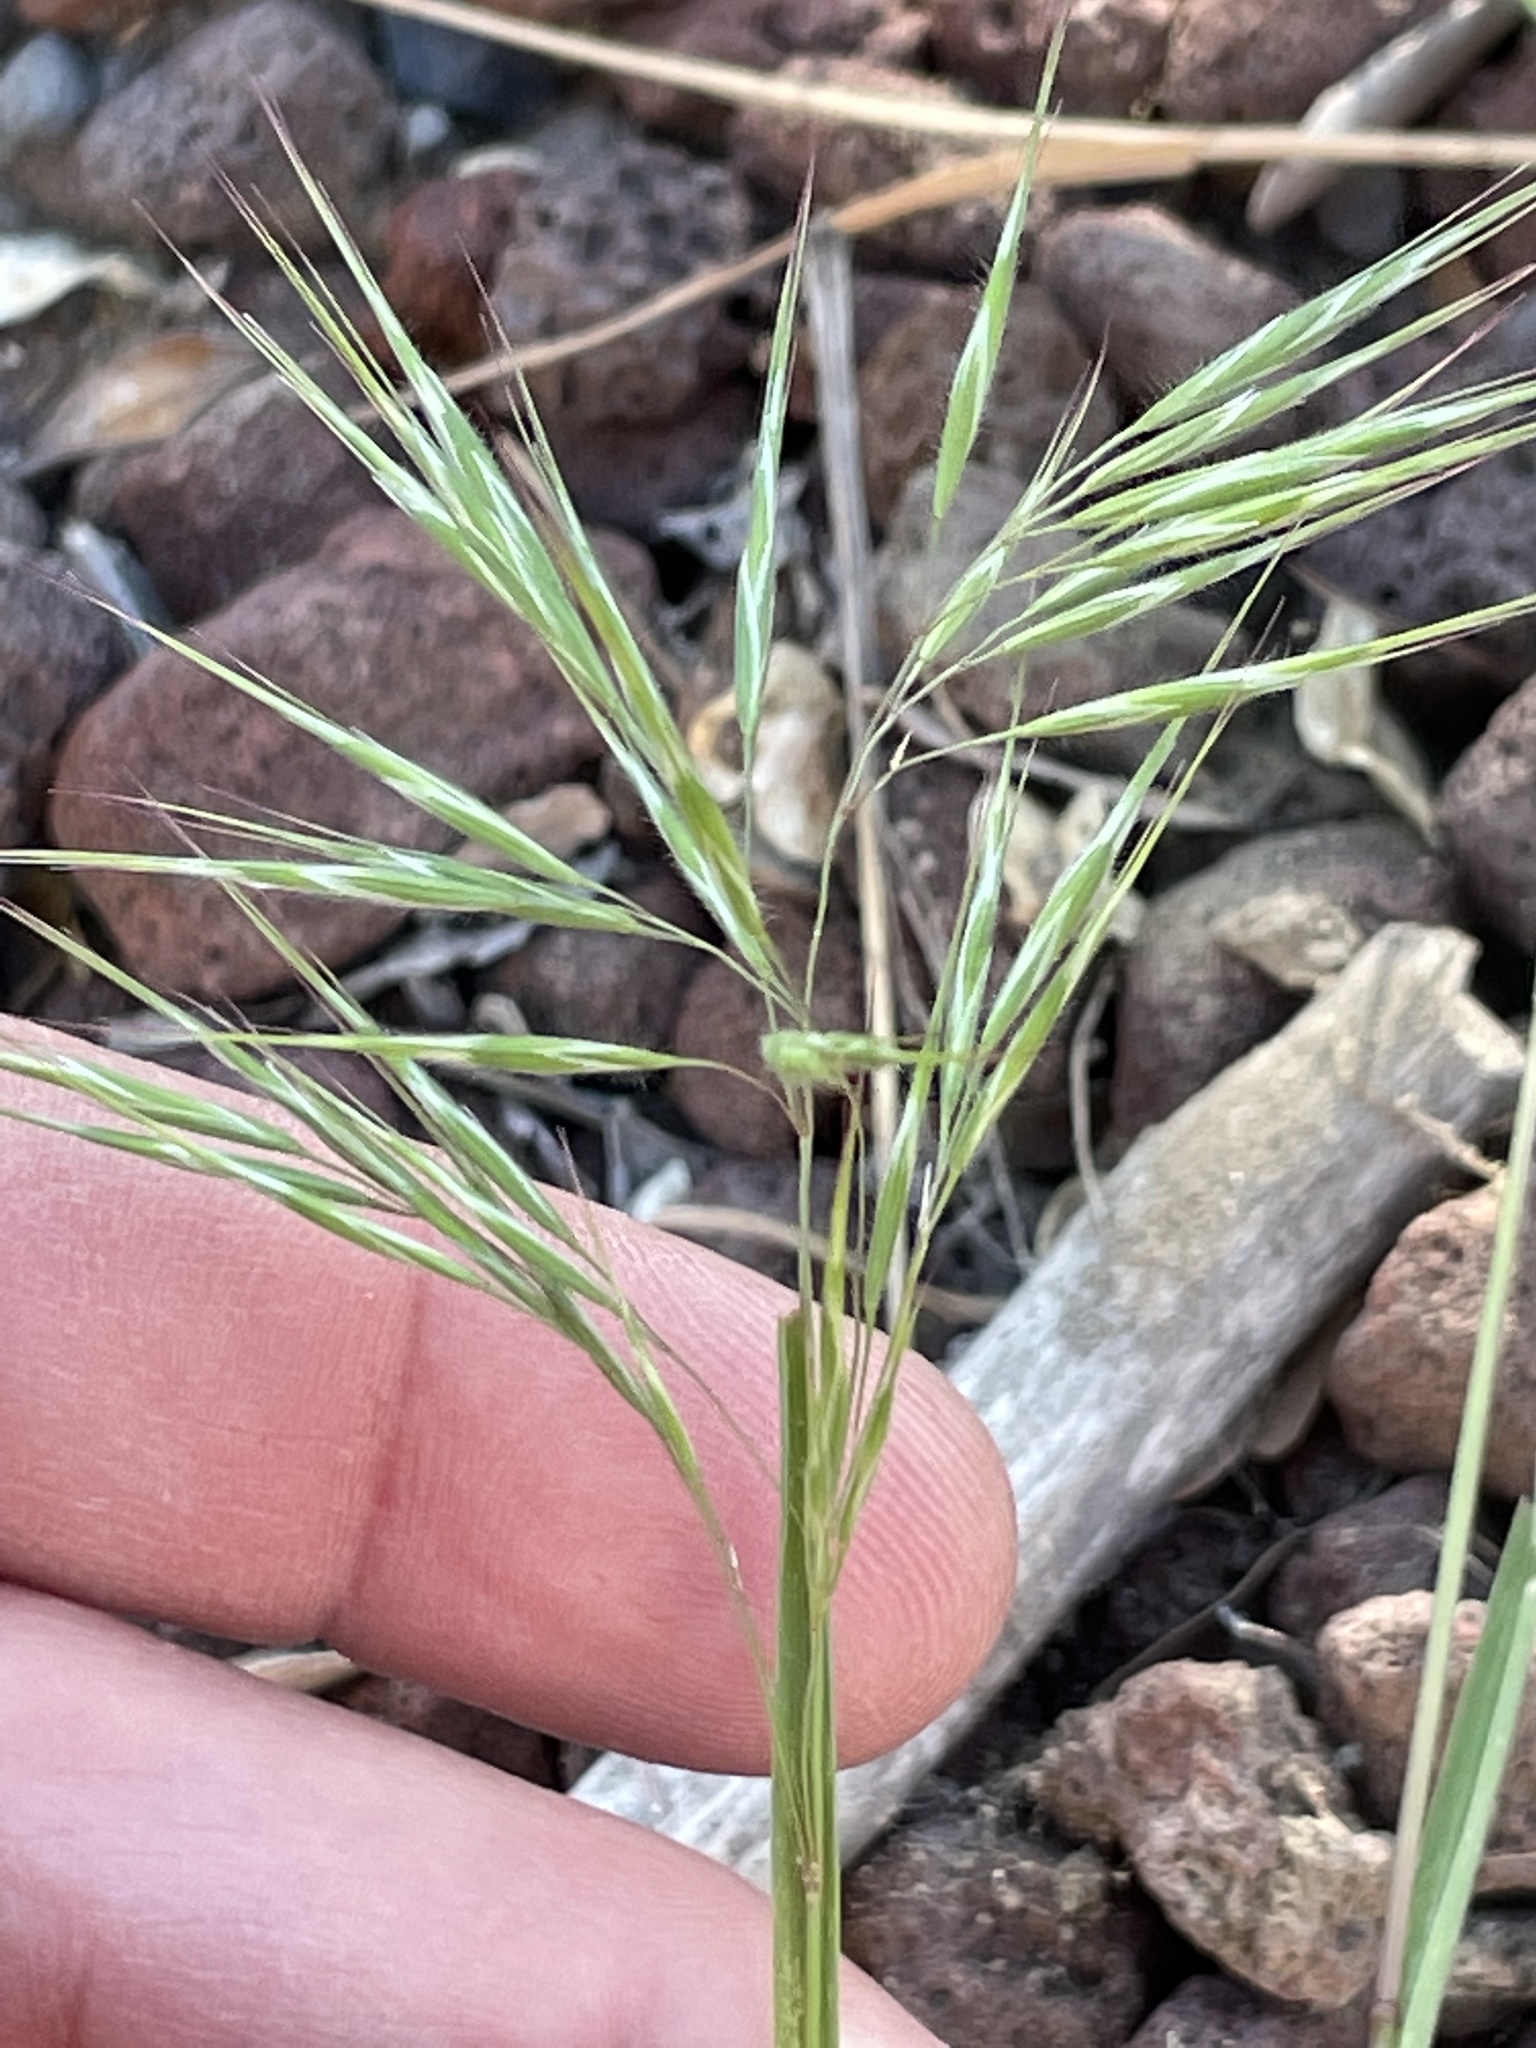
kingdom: Plantae
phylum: Tracheophyta
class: Liliopsida
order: Poales
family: Poaceae
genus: Bromus
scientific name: Bromus tectorum
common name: Cheatgrass
